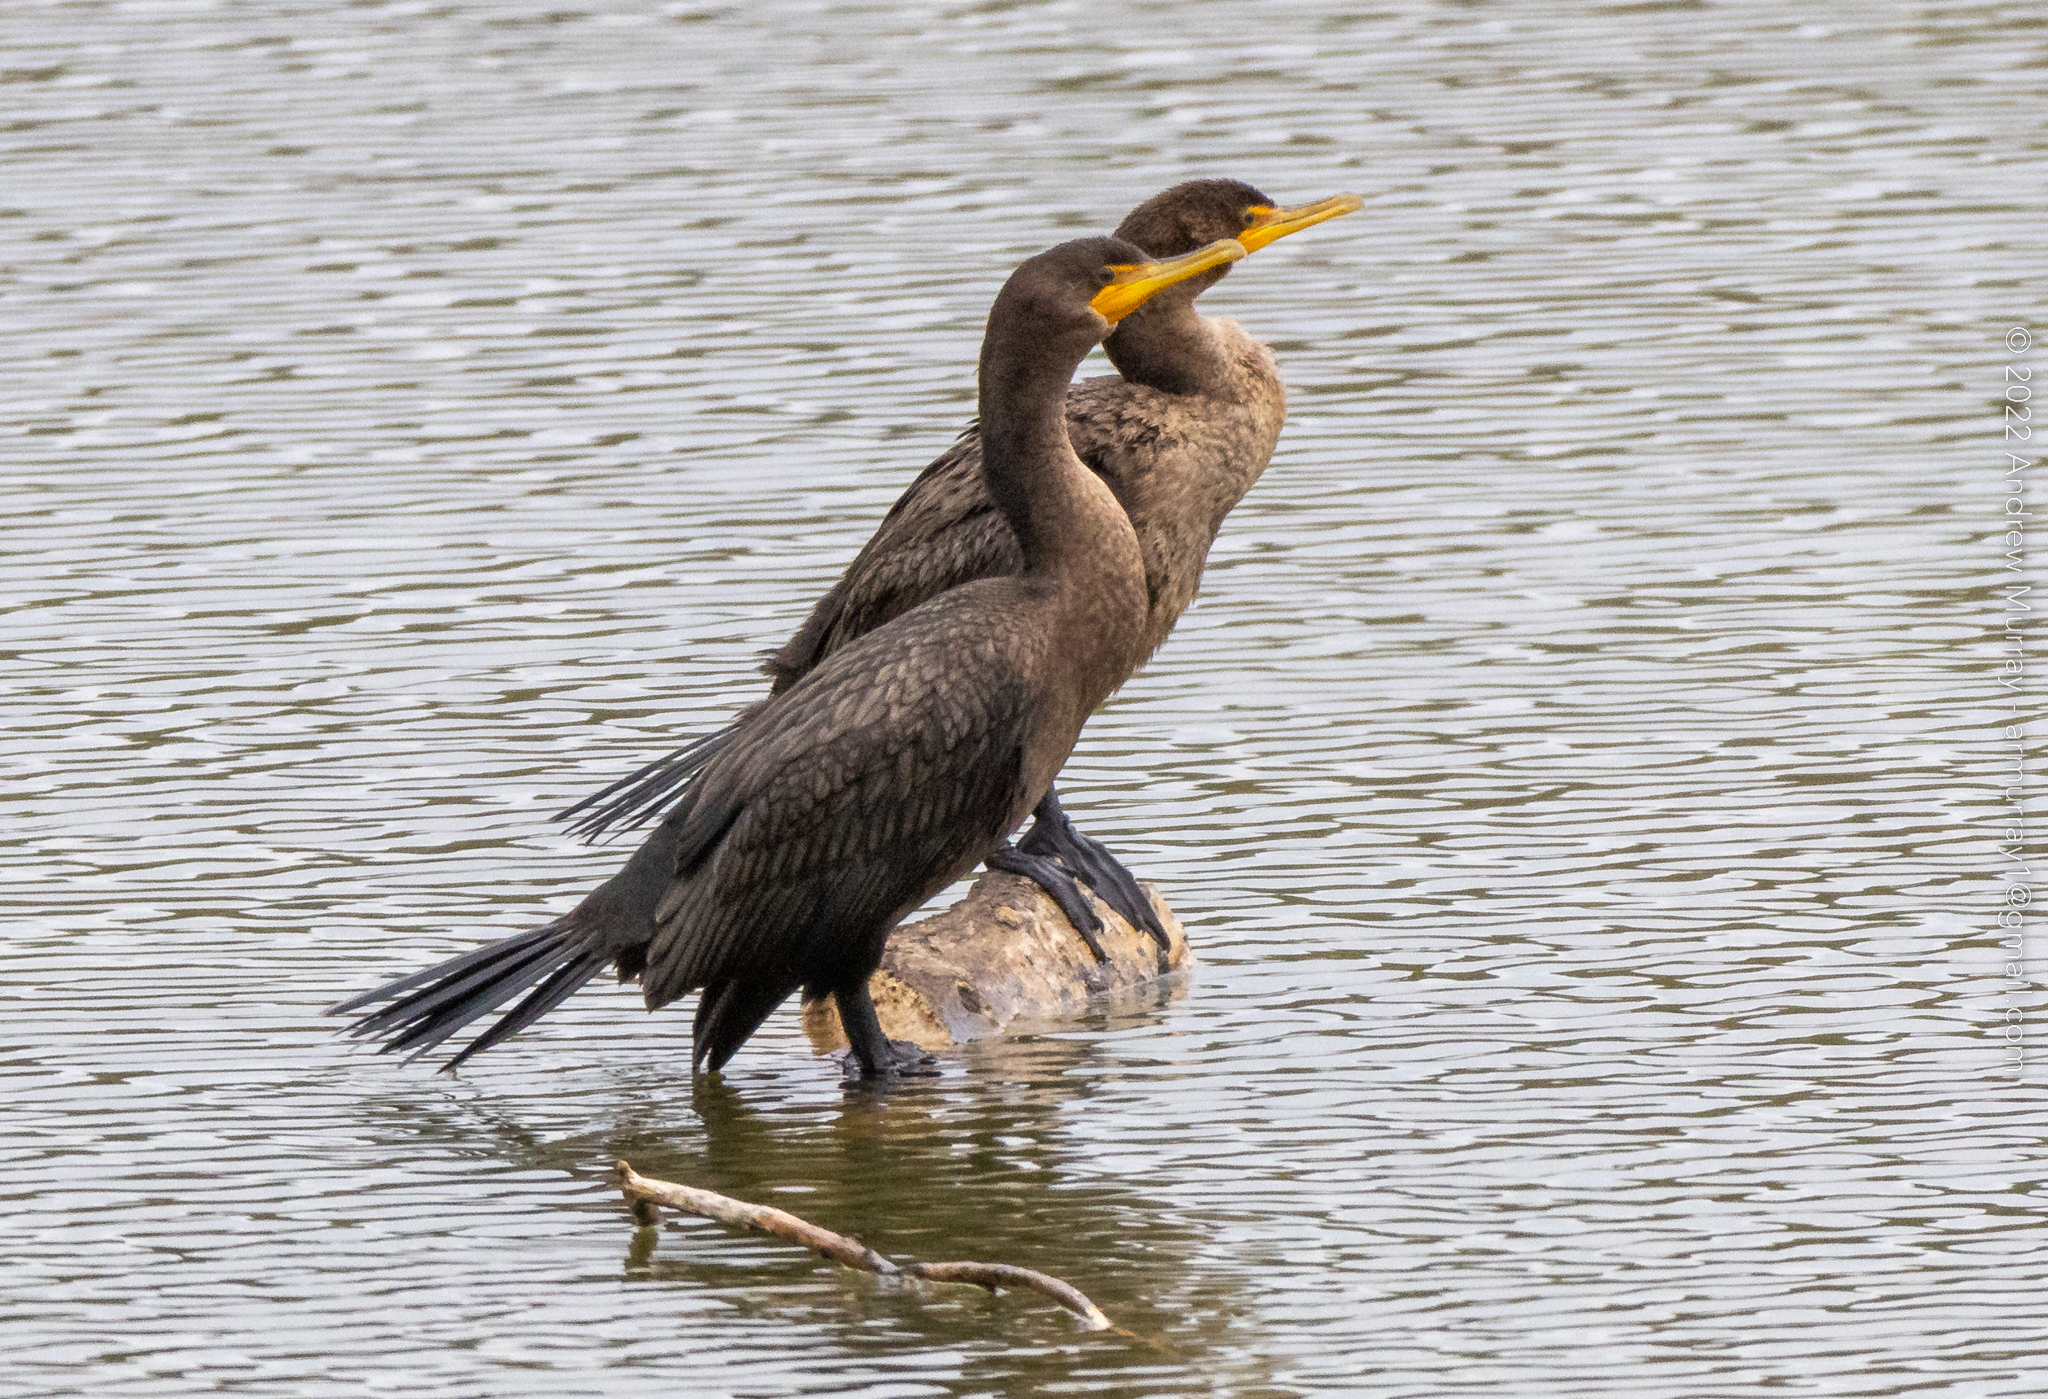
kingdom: Animalia
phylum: Chordata
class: Aves
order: Suliformes
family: Phalacrocoracidae
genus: Phalacrocorax
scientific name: Phalacrocorax auritus
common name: Double-crested cormorant
